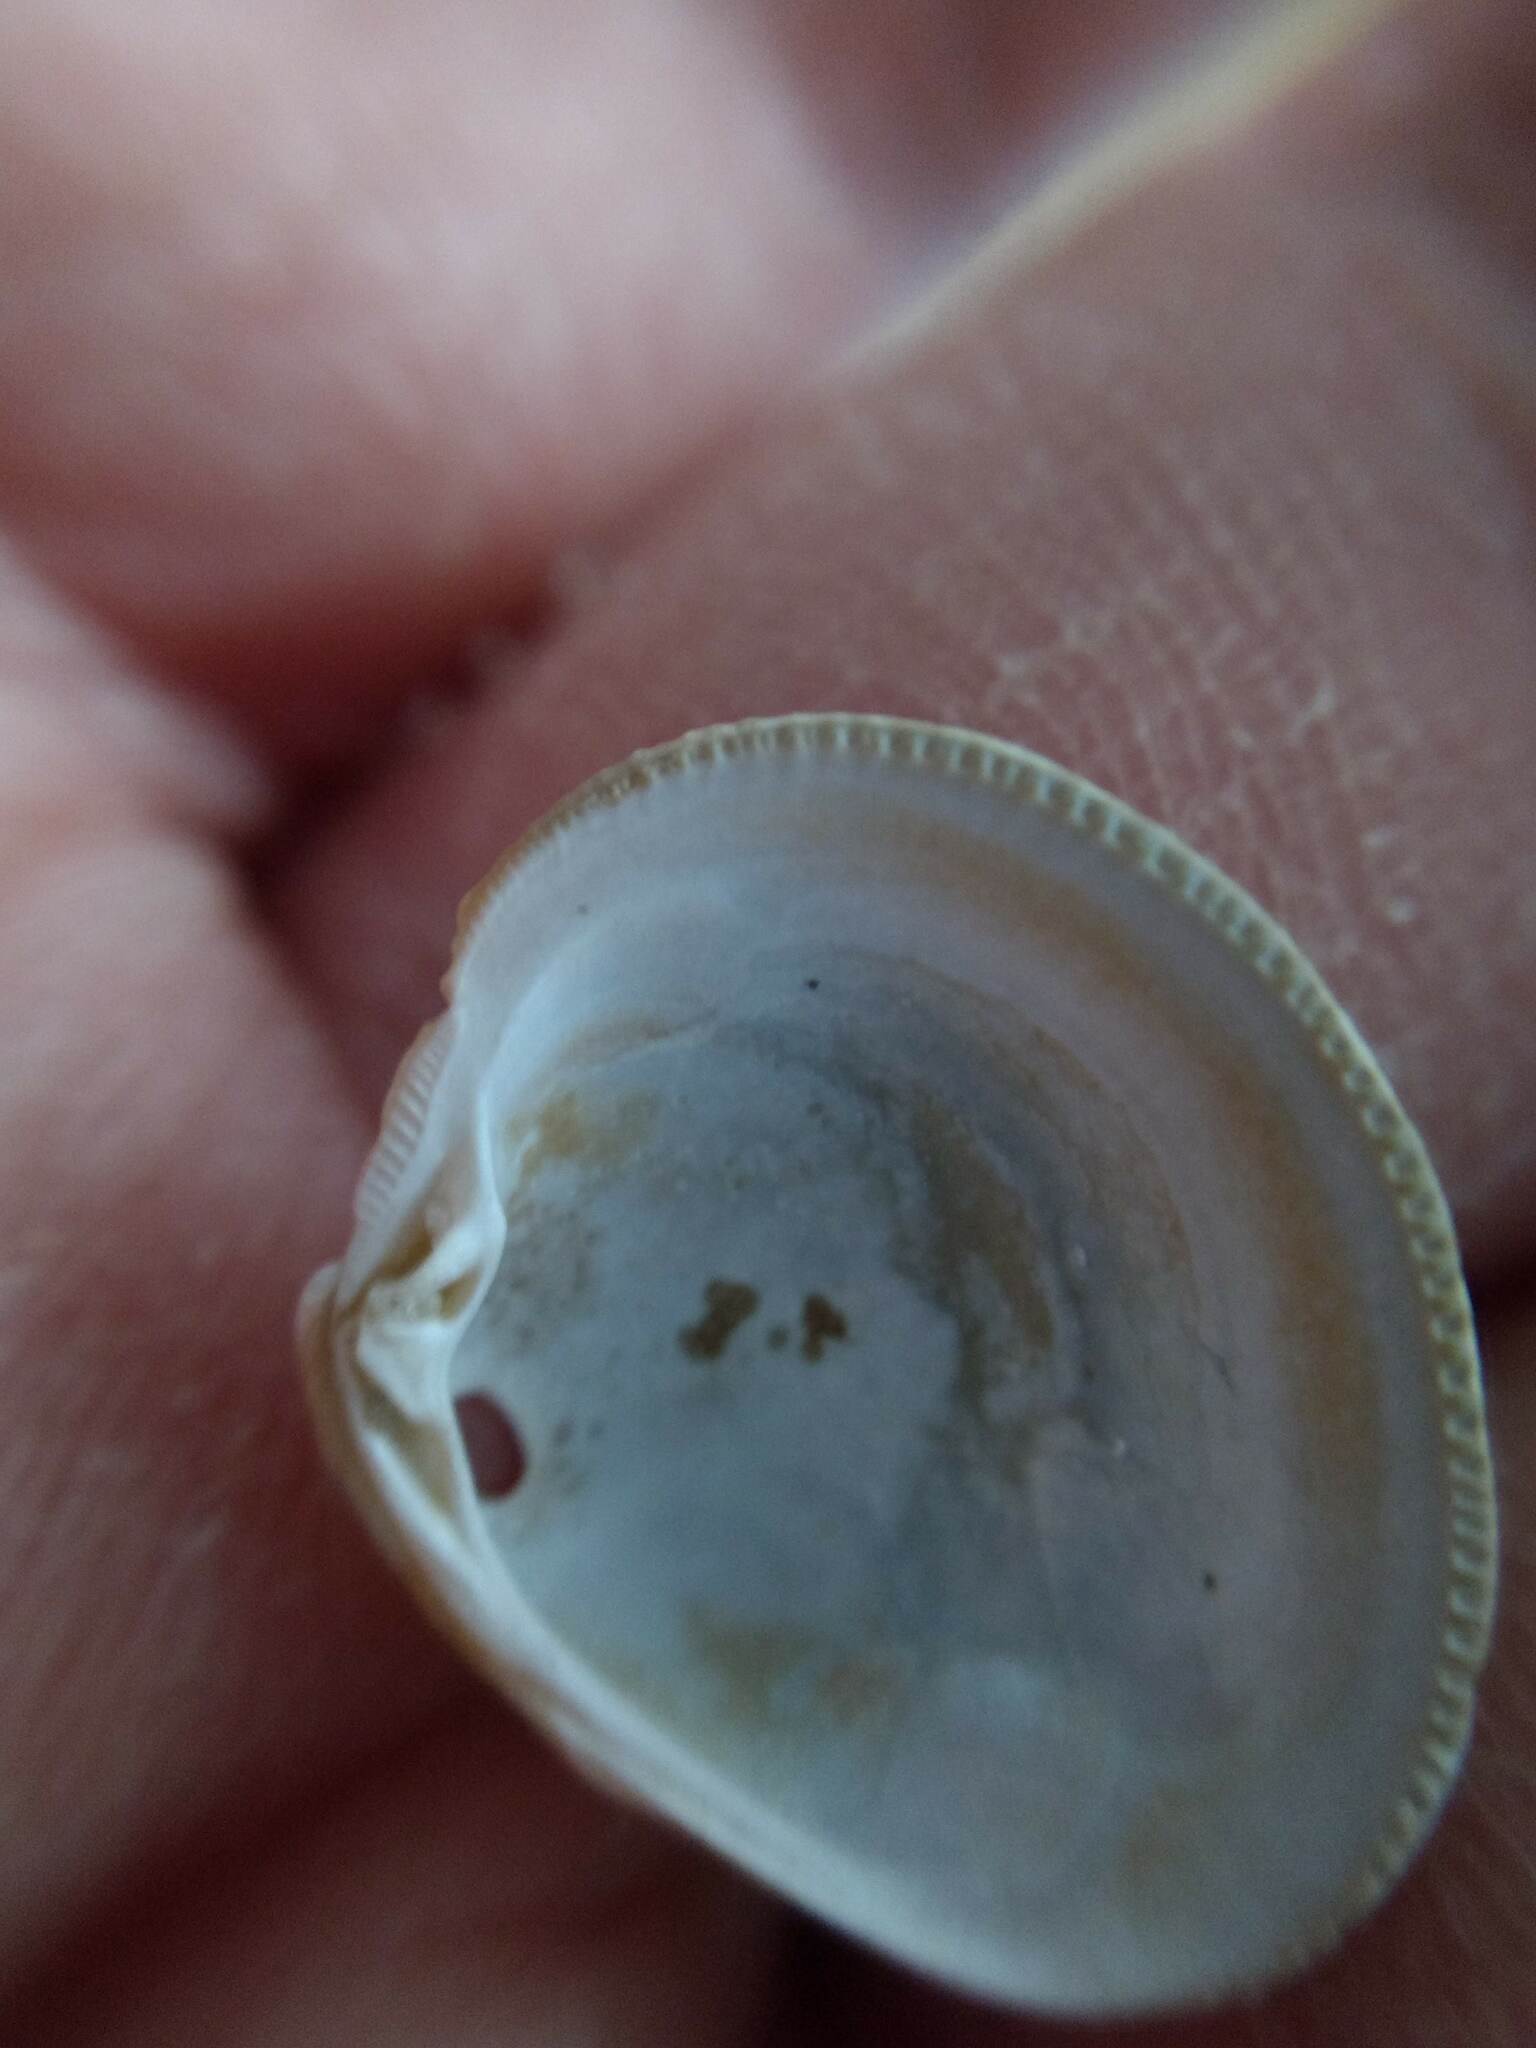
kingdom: Animalia
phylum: Mollusca
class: Bivalvia
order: Venerida
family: Veneridae
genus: Chionopsis
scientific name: Chionopsis intapurpurea
